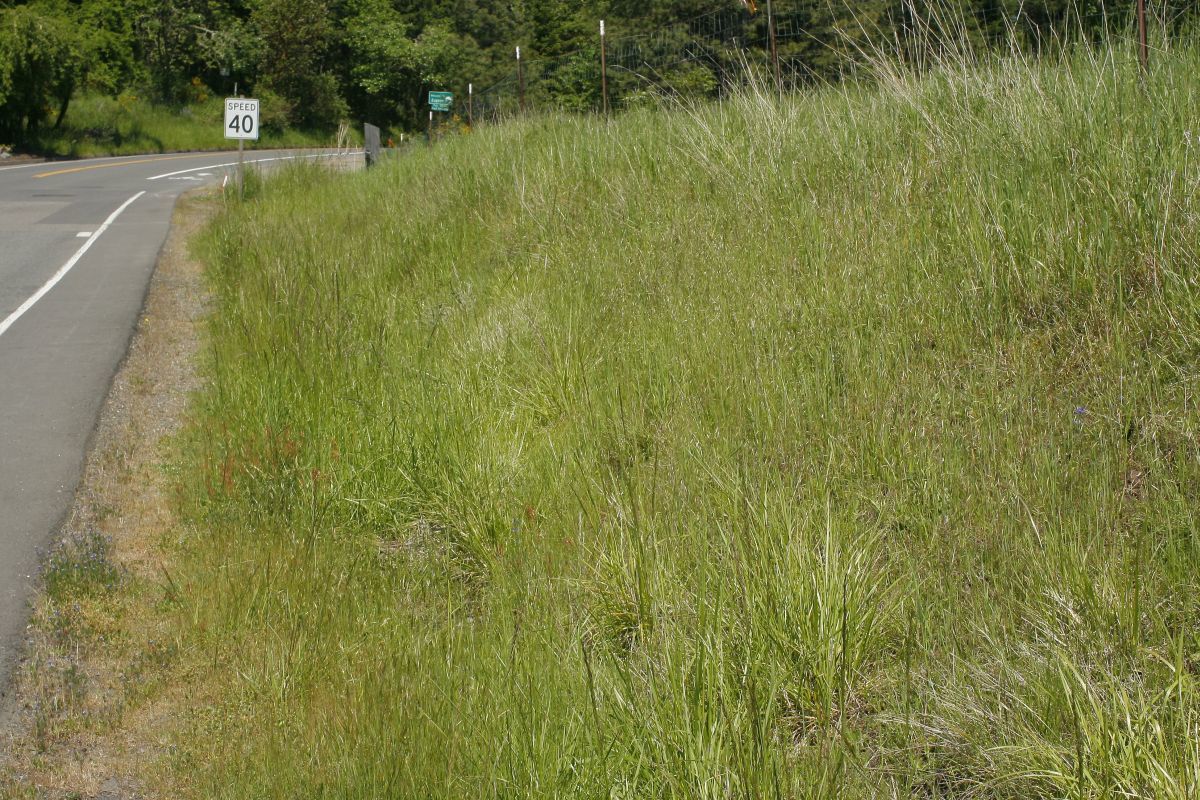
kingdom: Plantae
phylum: Tracheophyta
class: Magnoliopsida
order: Fabales
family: Fabaceae
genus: Lupinus
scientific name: Lupinus affinis
